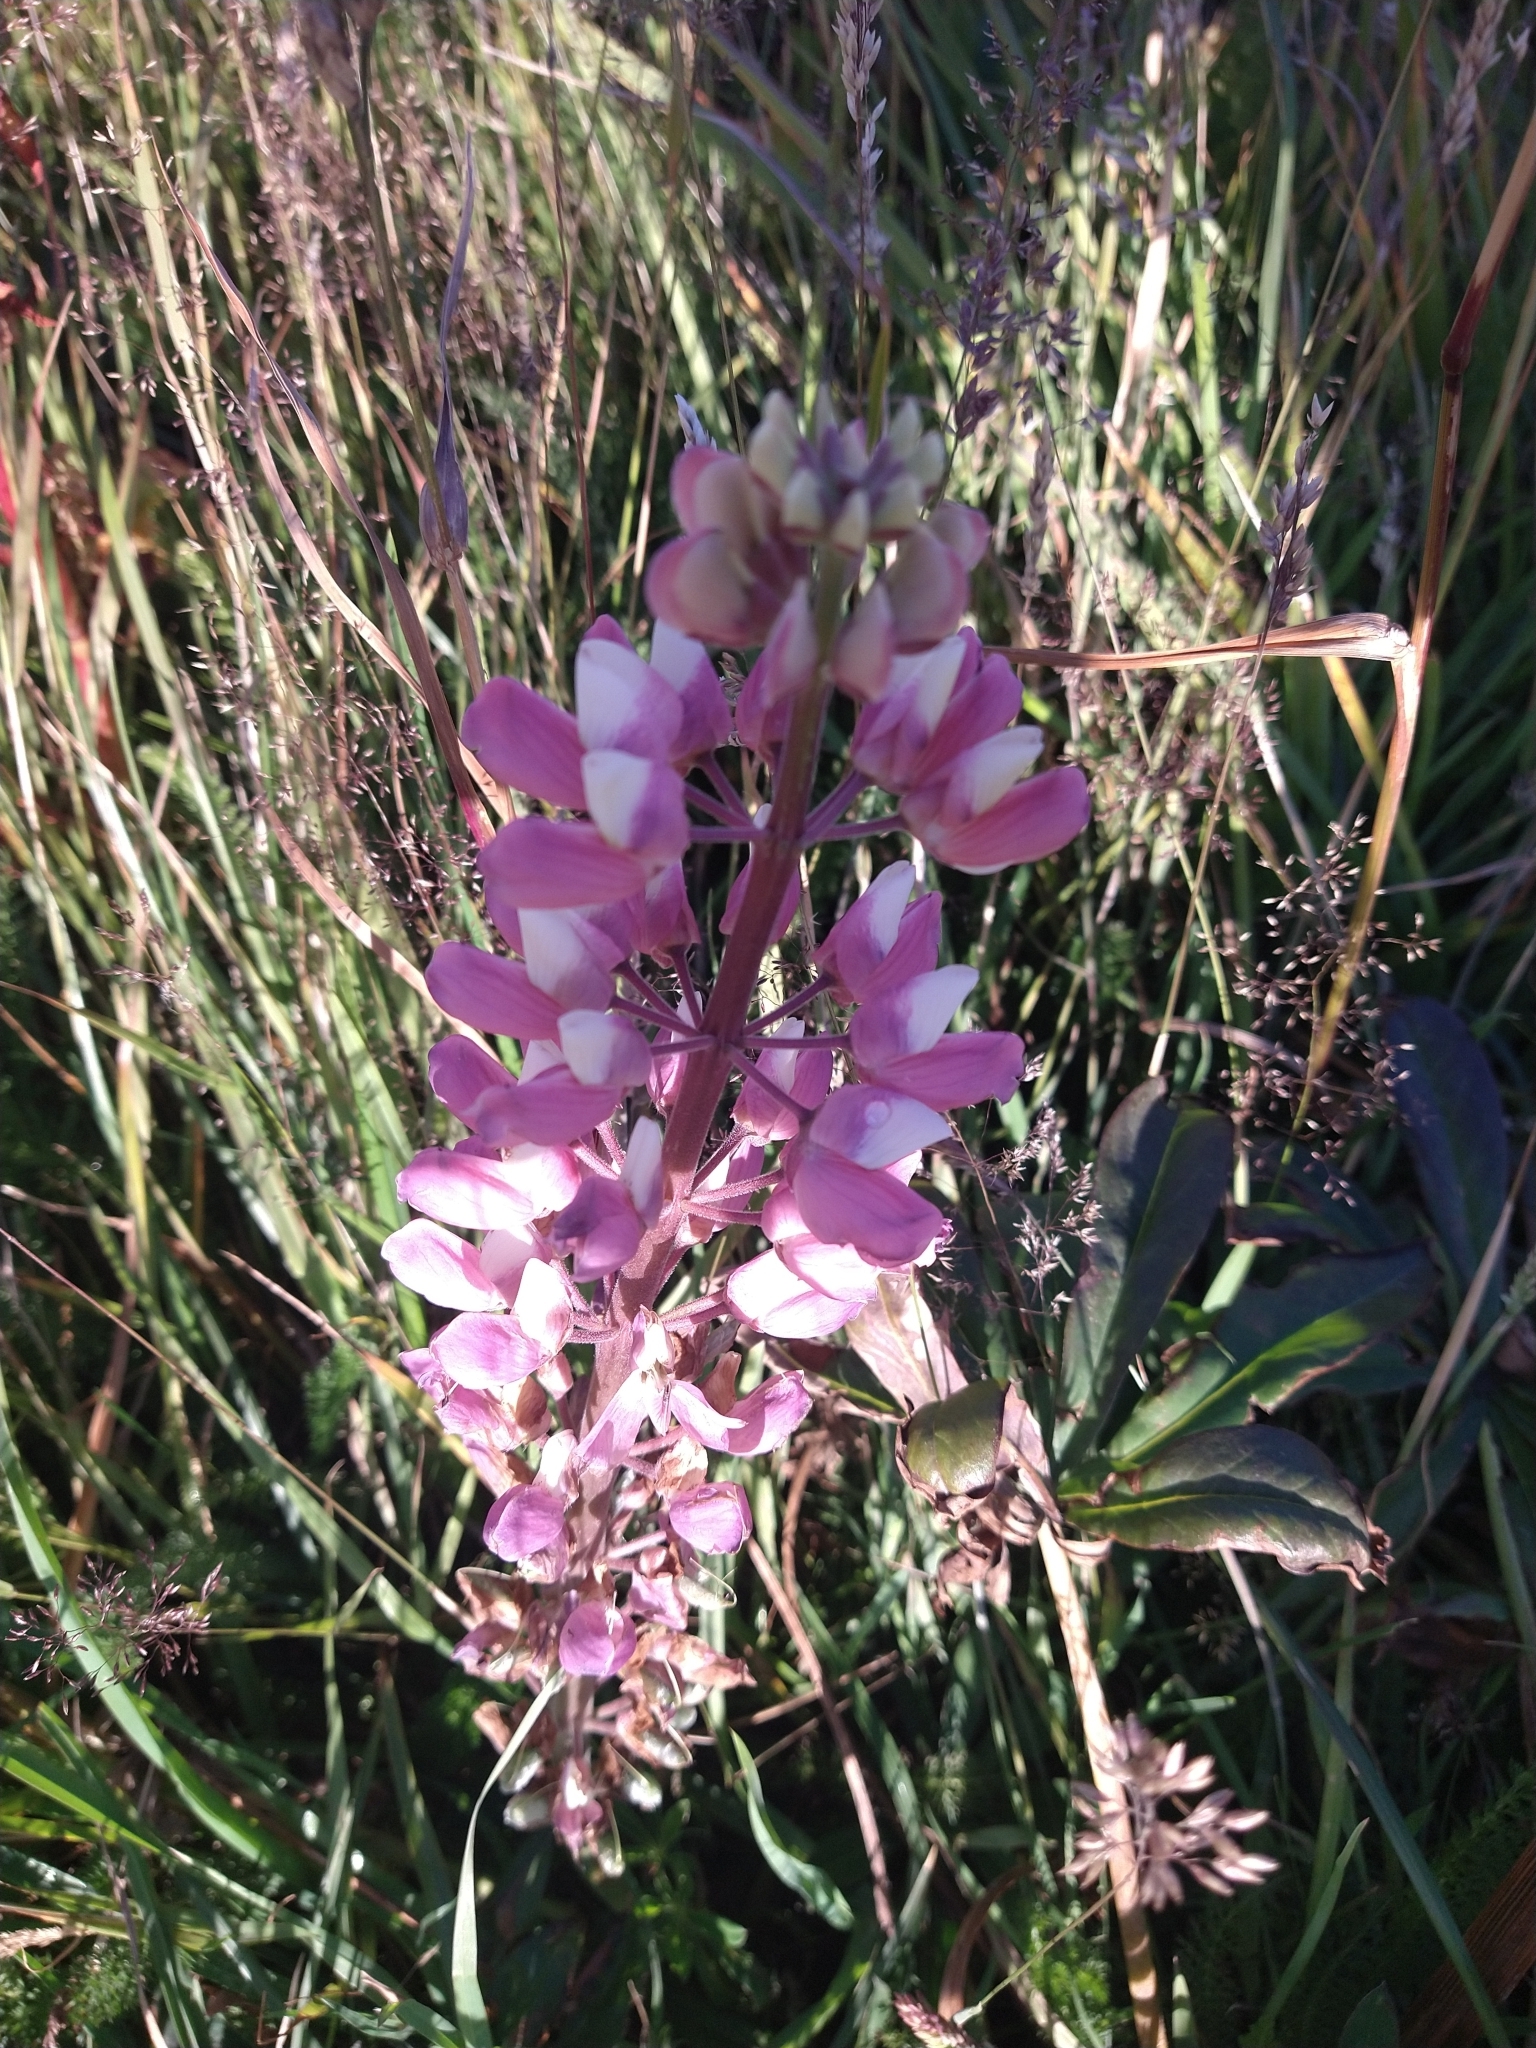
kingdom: Plantae
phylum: Tracheophyta
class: Magnoliopsida
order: Fabales
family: Fabaceae
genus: Lupinus
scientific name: Lupinus polyphyllus
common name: Garden lupin
